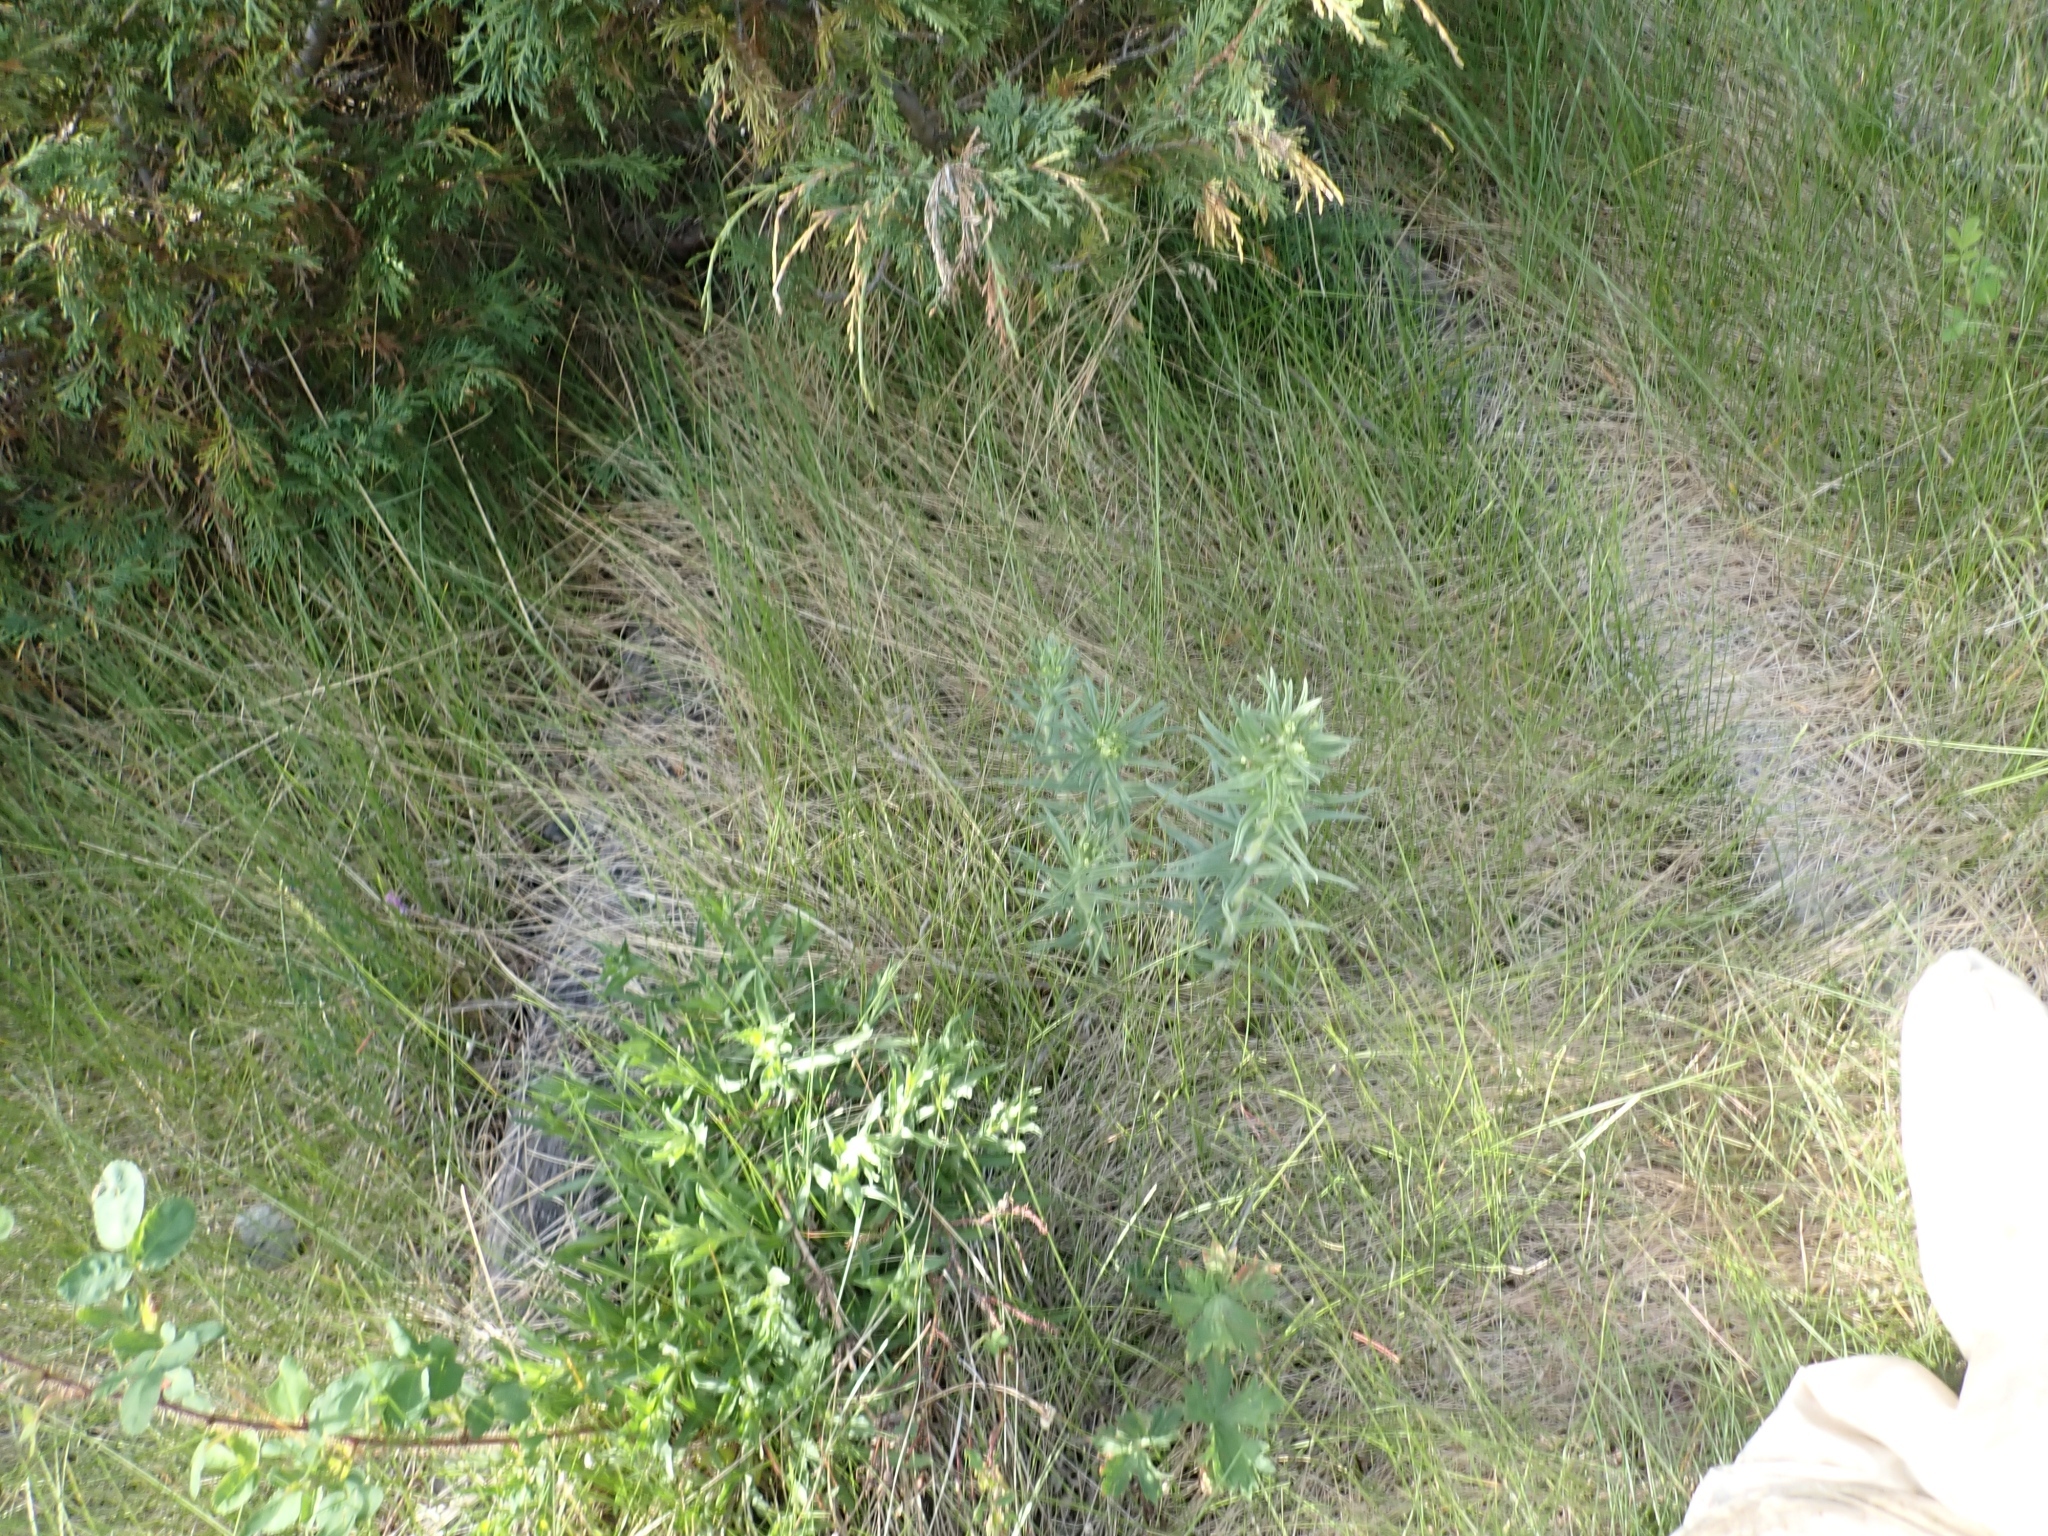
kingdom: Plantae
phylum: Tracheophyta
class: Magnoliopsida
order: Boraginales
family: Boraginaceae
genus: Lithospermum
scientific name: Lithospermum ruderale
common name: Western gromwell
